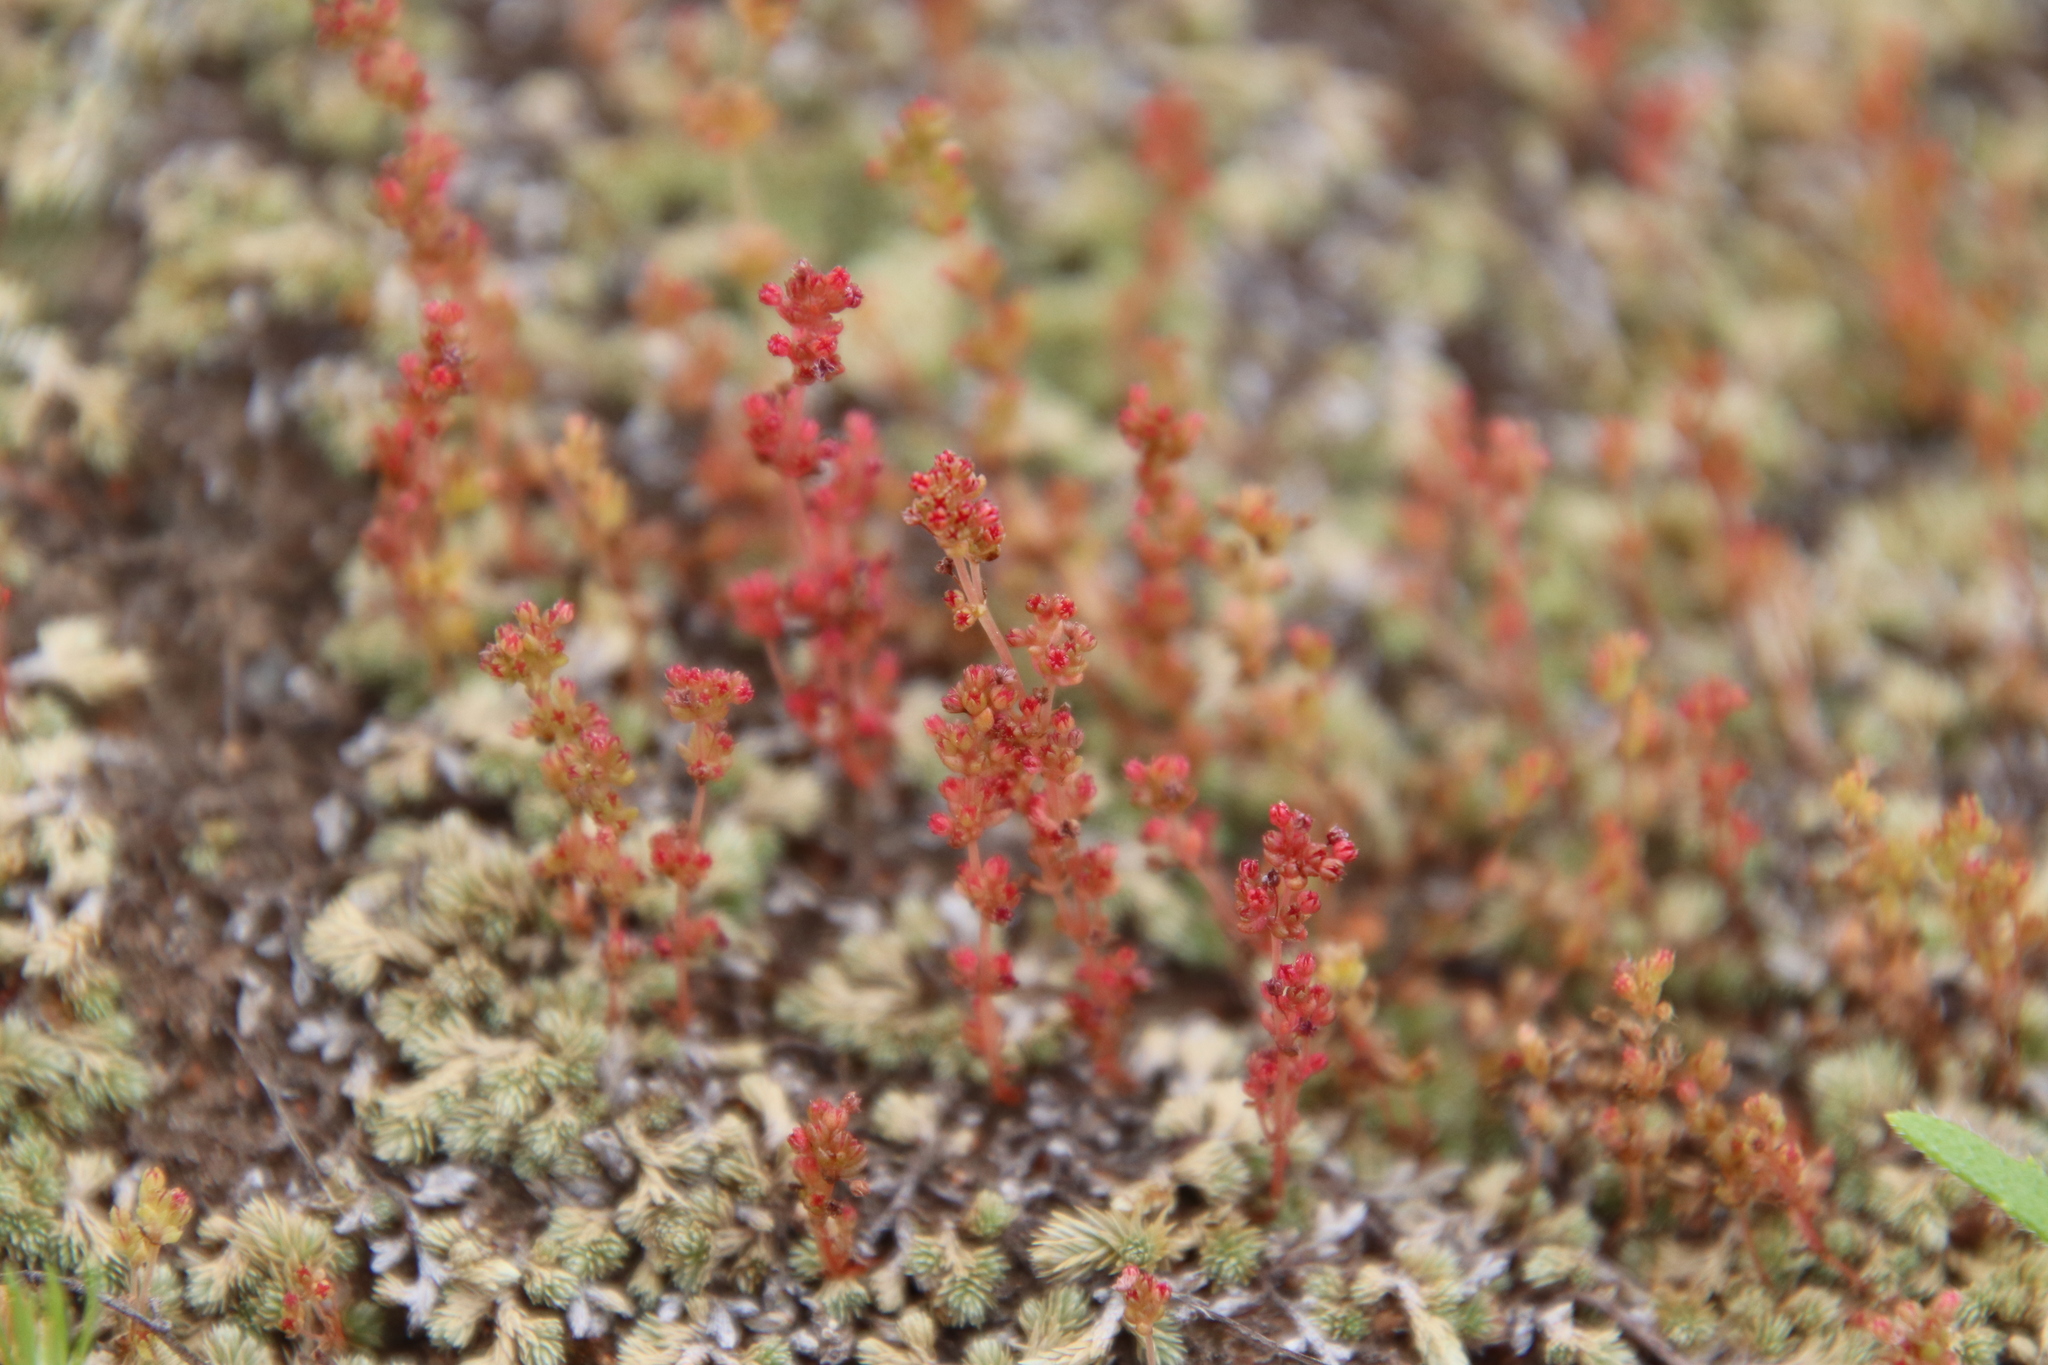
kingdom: Plantae
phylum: Tracheophyta
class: Magnoliopsida
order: Saxifragales
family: Crassulaceae
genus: Crassula
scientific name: Crassula connata
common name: Erect pygmyweed
